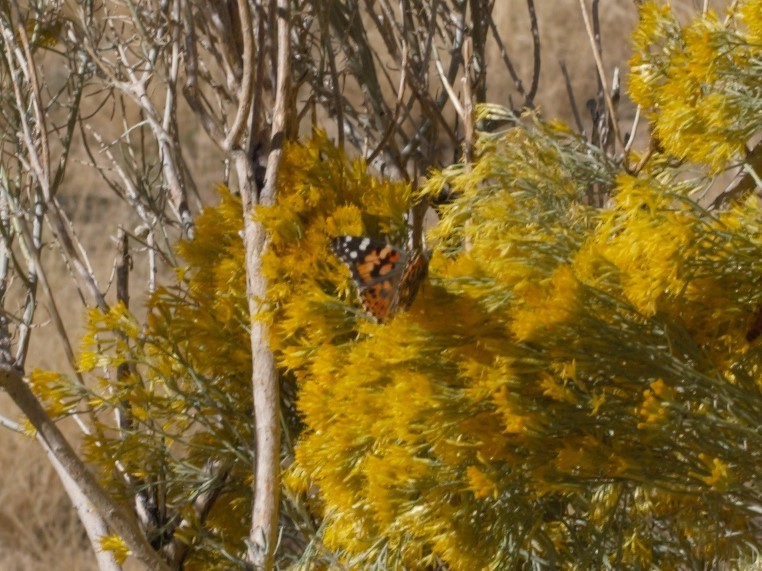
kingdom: Animalia
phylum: Arthropoda
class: Insecta
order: Lepidoptera
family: Nymphalidae
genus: Vanessa
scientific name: Vanessa cardui
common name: Painted lady
